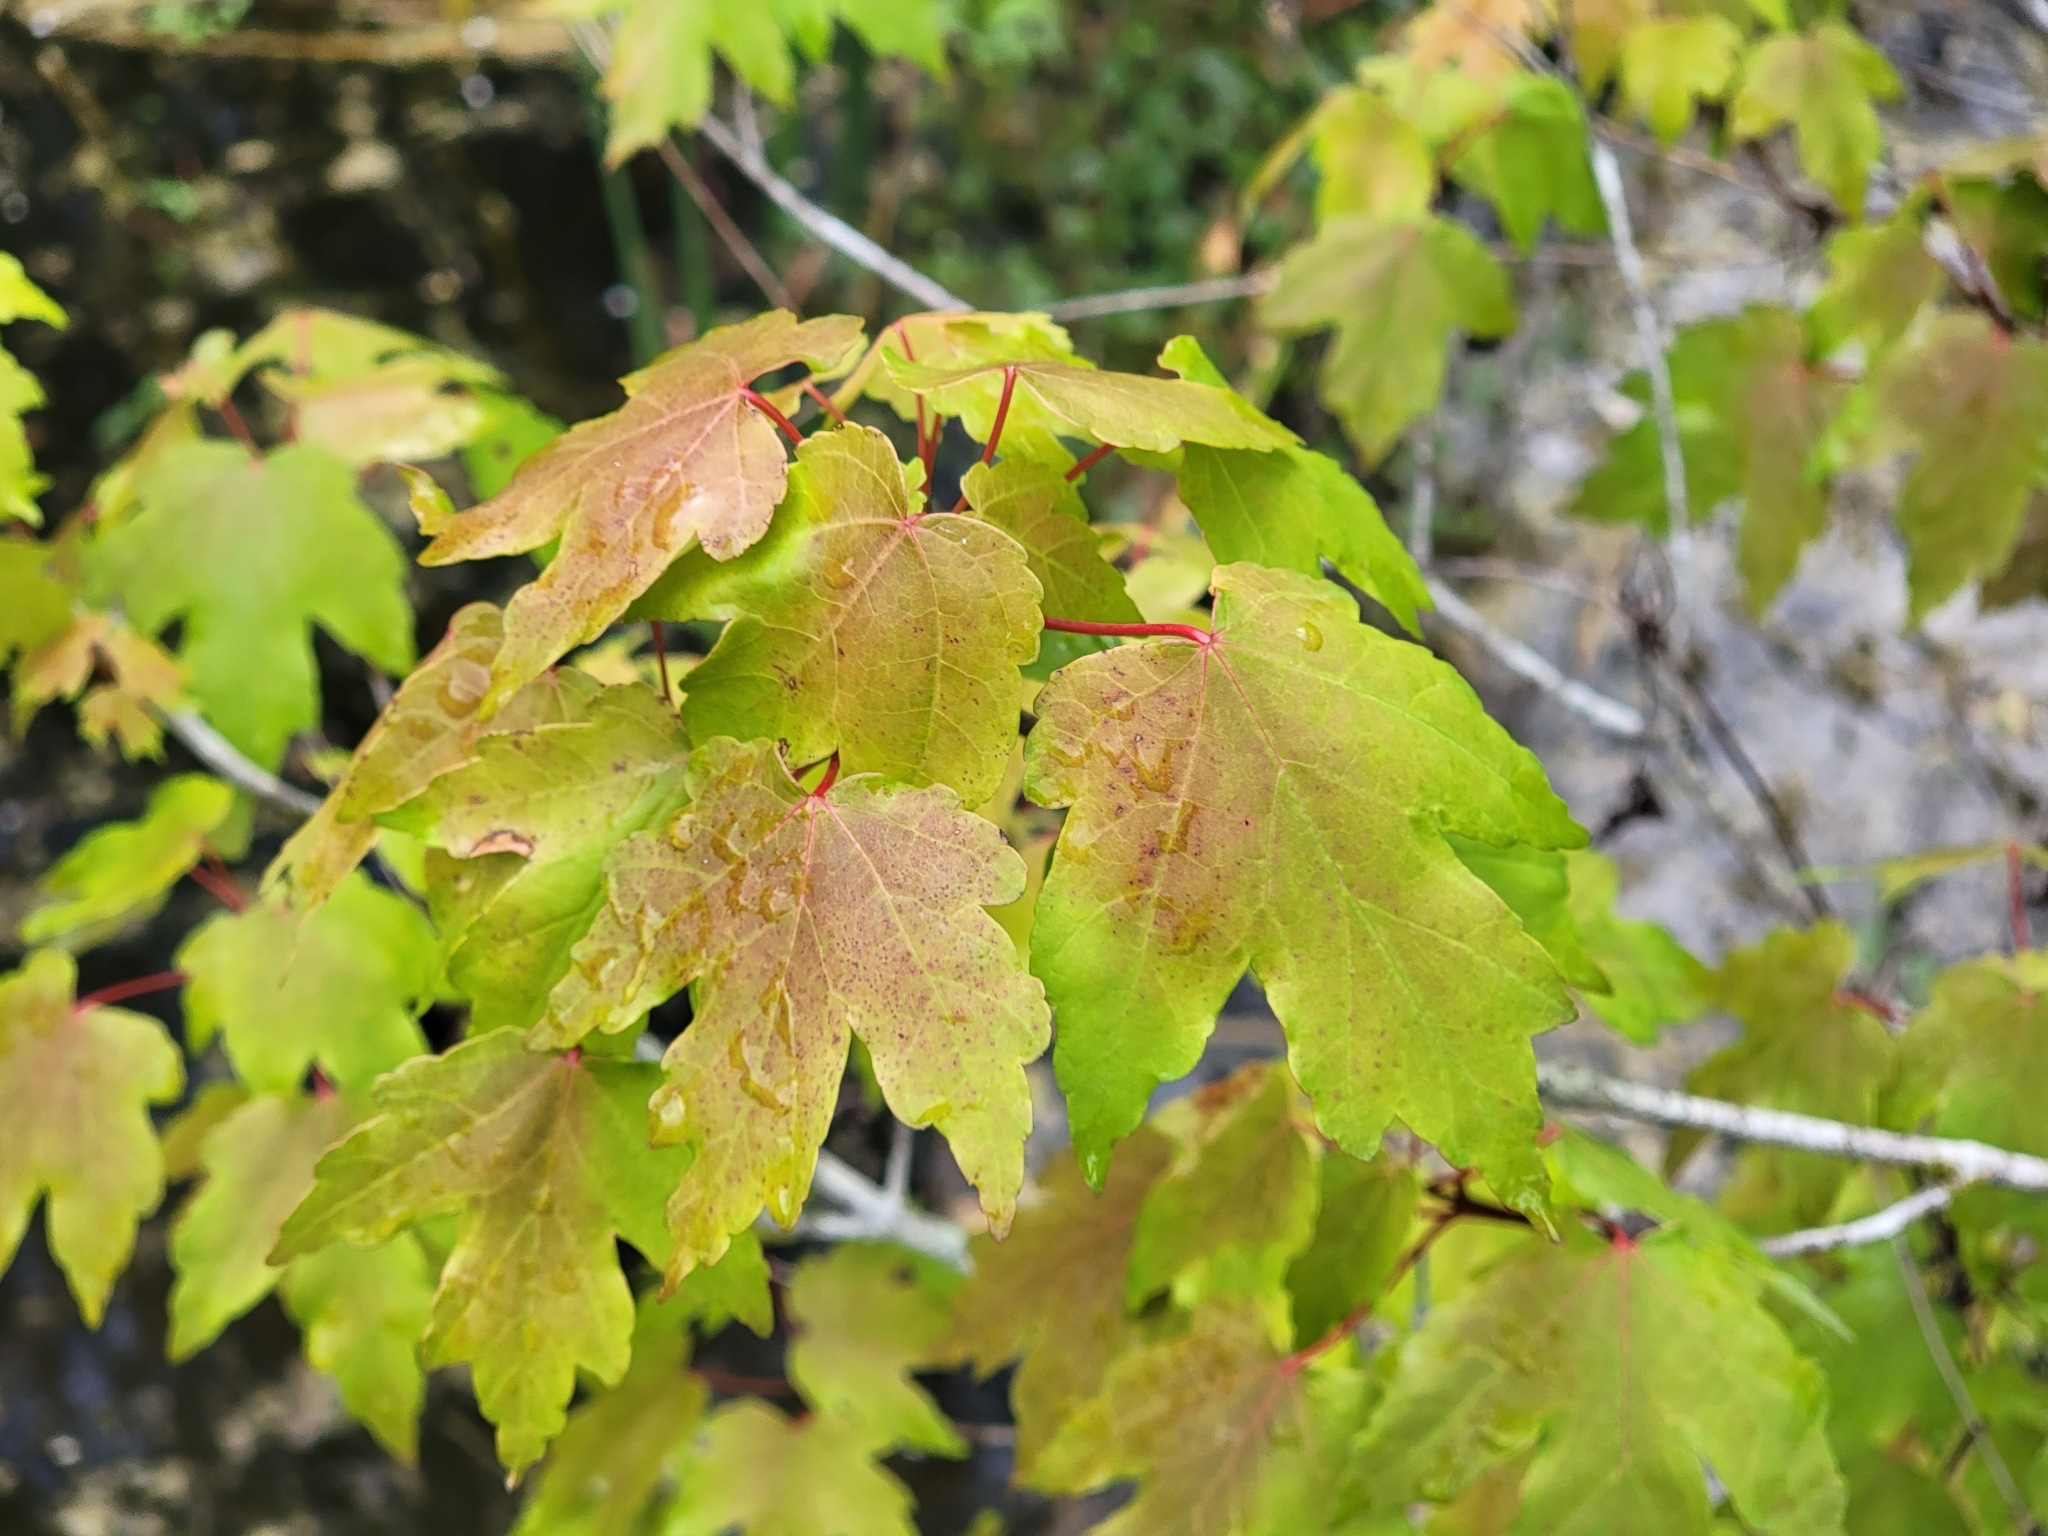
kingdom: Plantae
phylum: Tracheophyta
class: Magnoliopsida
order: Sapindales
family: Sapindaceae
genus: Acer
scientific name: Acer rubrum
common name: Red maple
